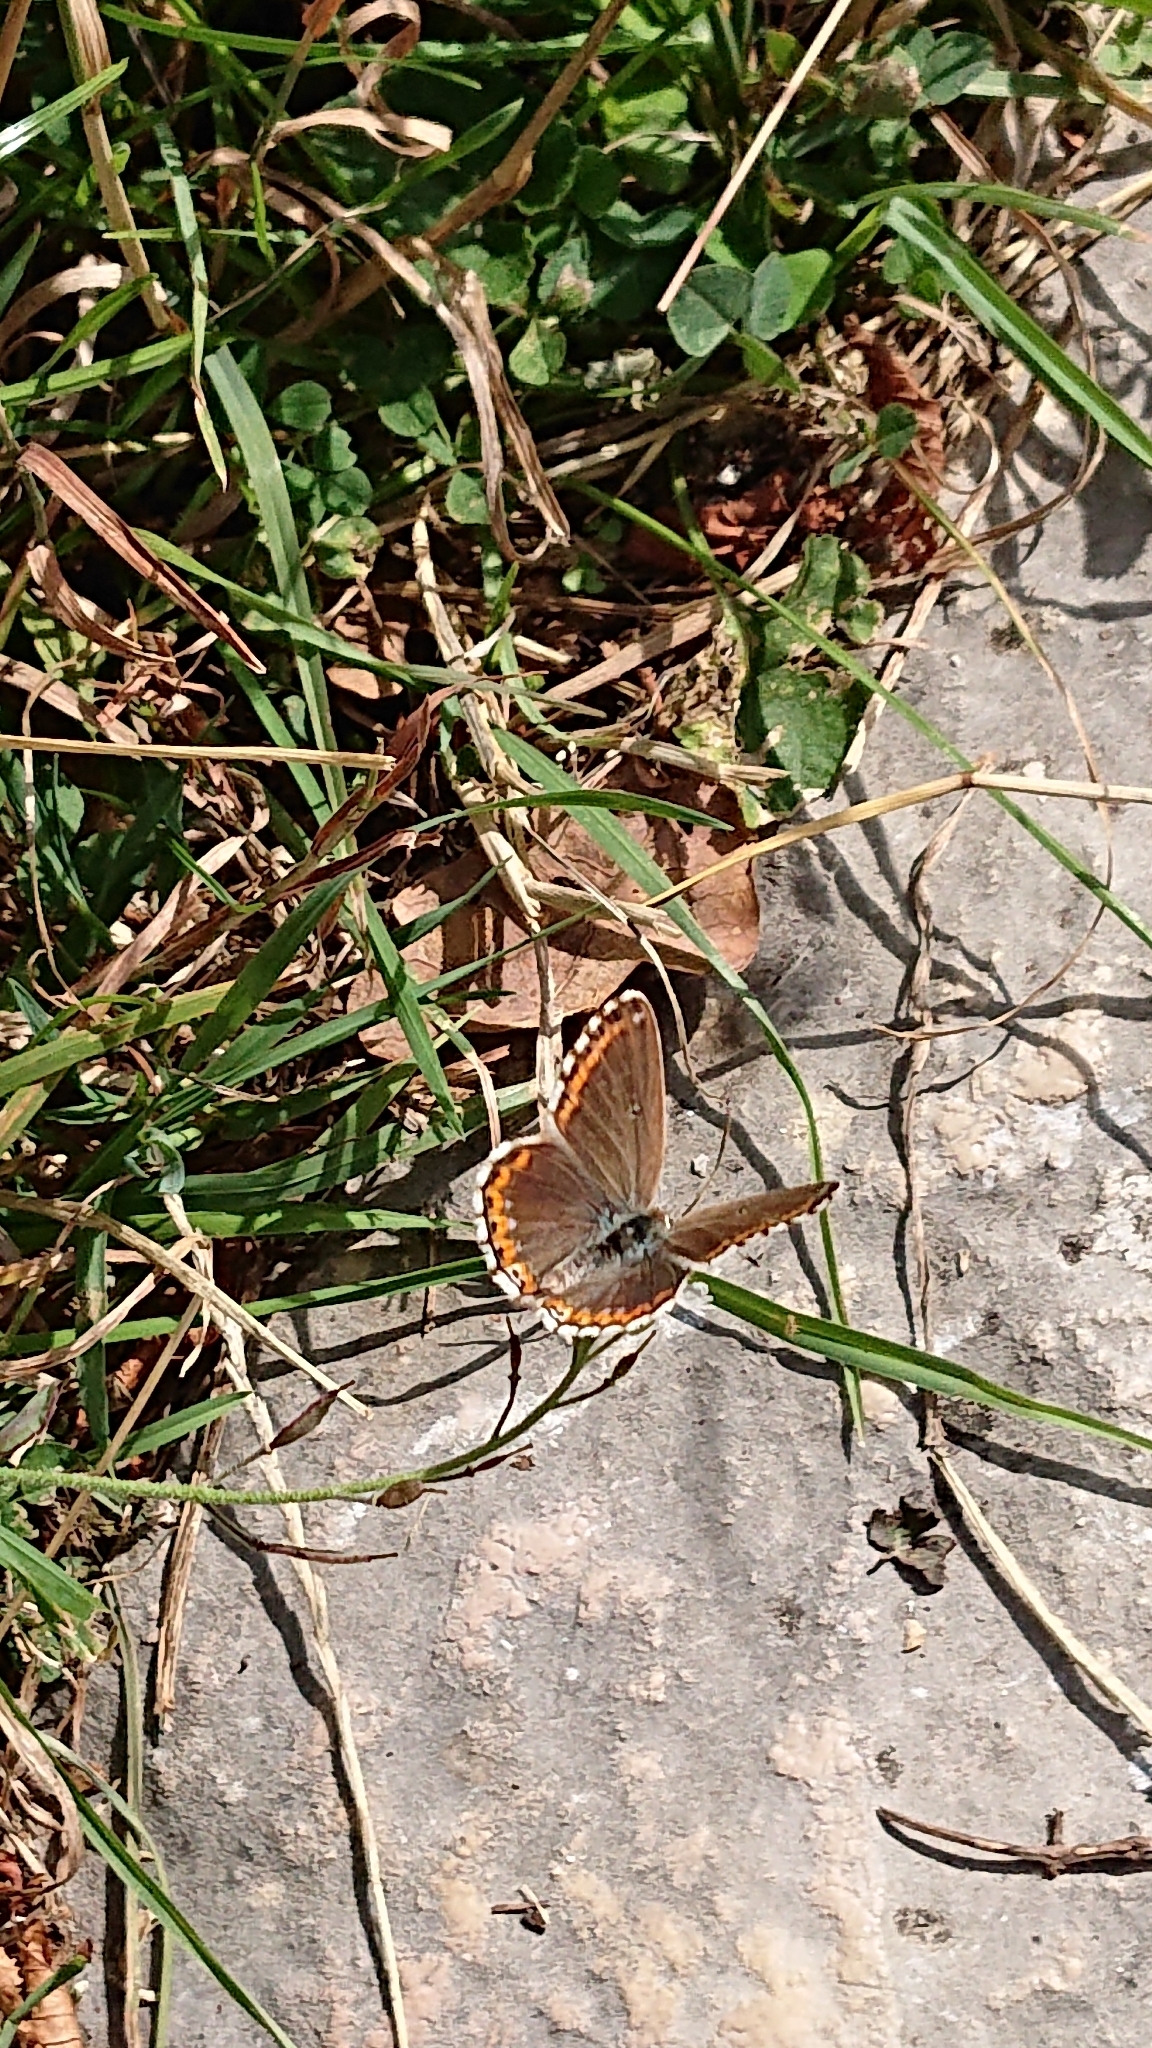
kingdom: Animalia
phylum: Arthropoda
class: Insecta
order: Lepidoptera
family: Lycaenidae
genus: Lysandra
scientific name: Lysandra bellargus
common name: Adonis blue
